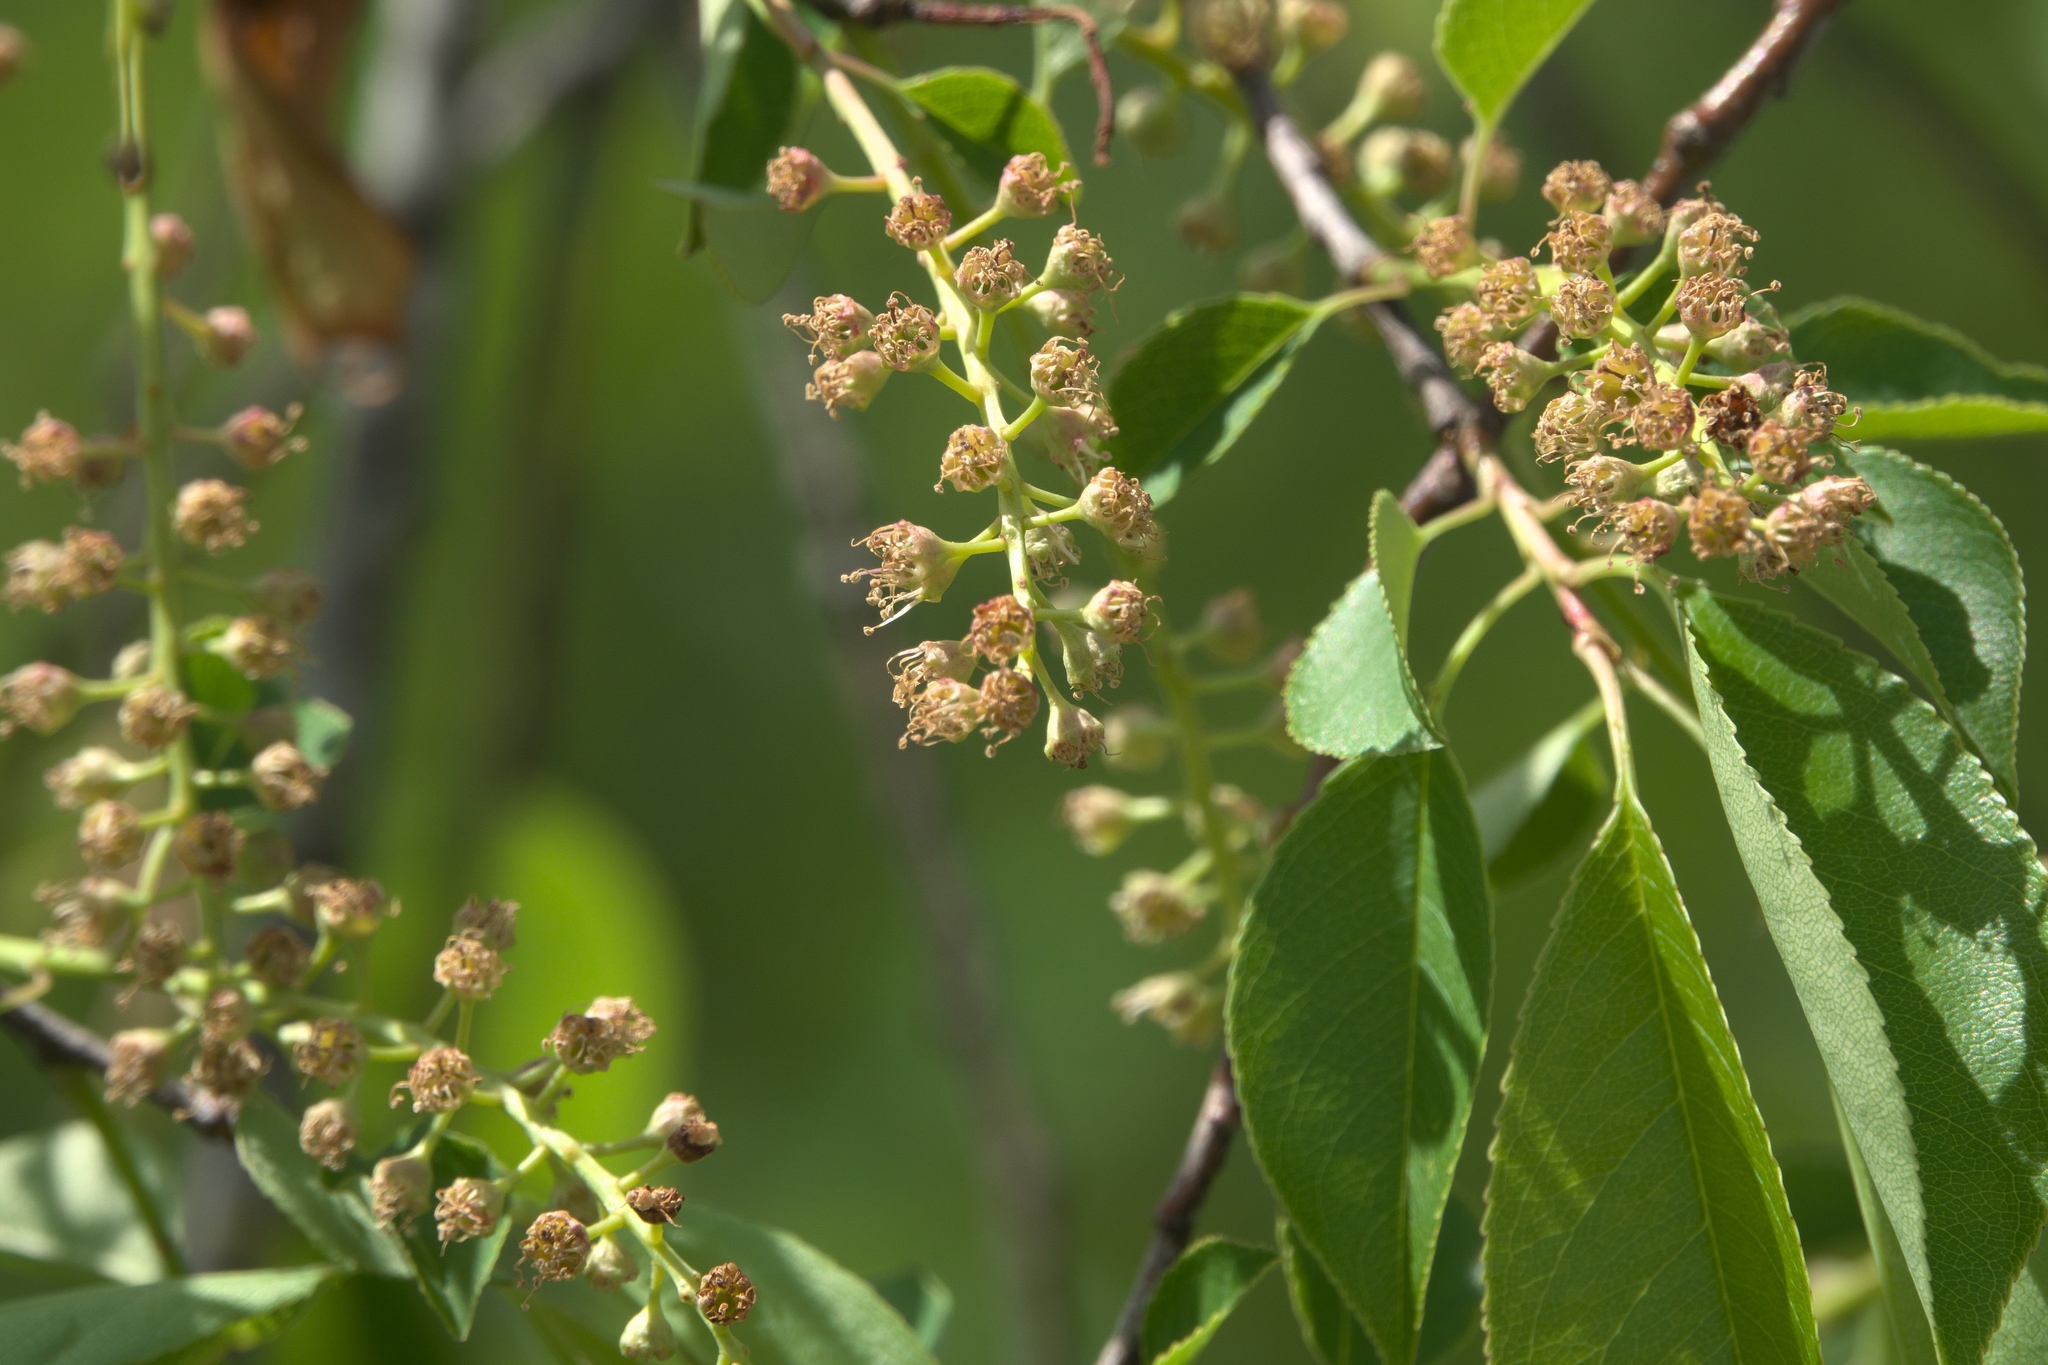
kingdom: Plantae
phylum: Tracheophyta
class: Magnoliopsida
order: Rosales
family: Rosaceae
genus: Prunus
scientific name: Prunus serotina
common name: Black cherry
